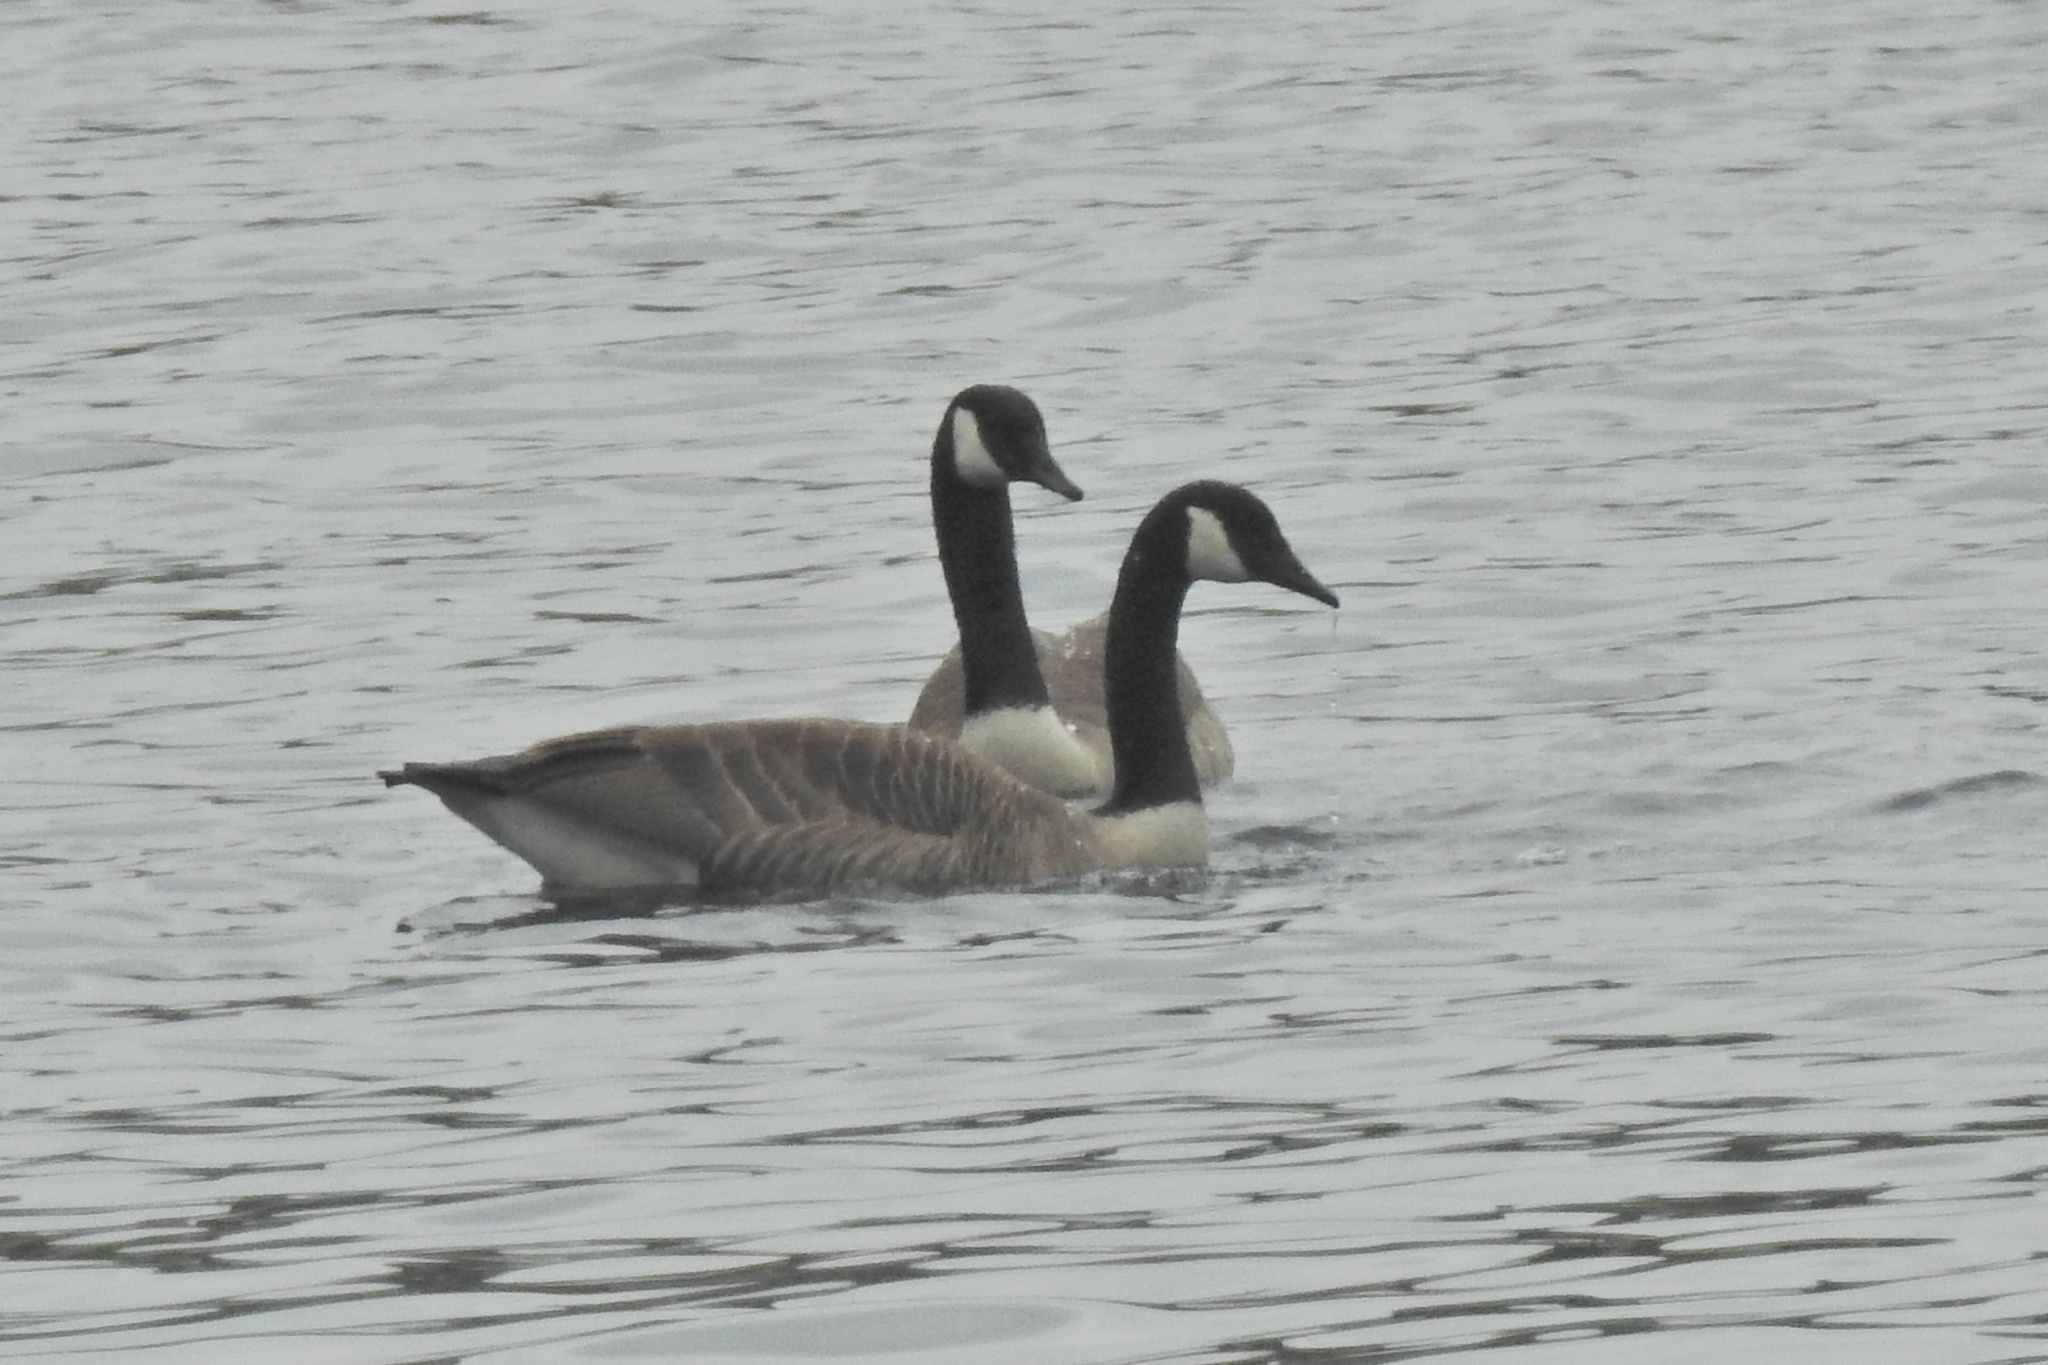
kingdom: Animalia
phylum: Chordata
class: Aves
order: Anseriformes
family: Anatidae
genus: Branta
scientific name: Branta canadensis
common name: Canada goose
